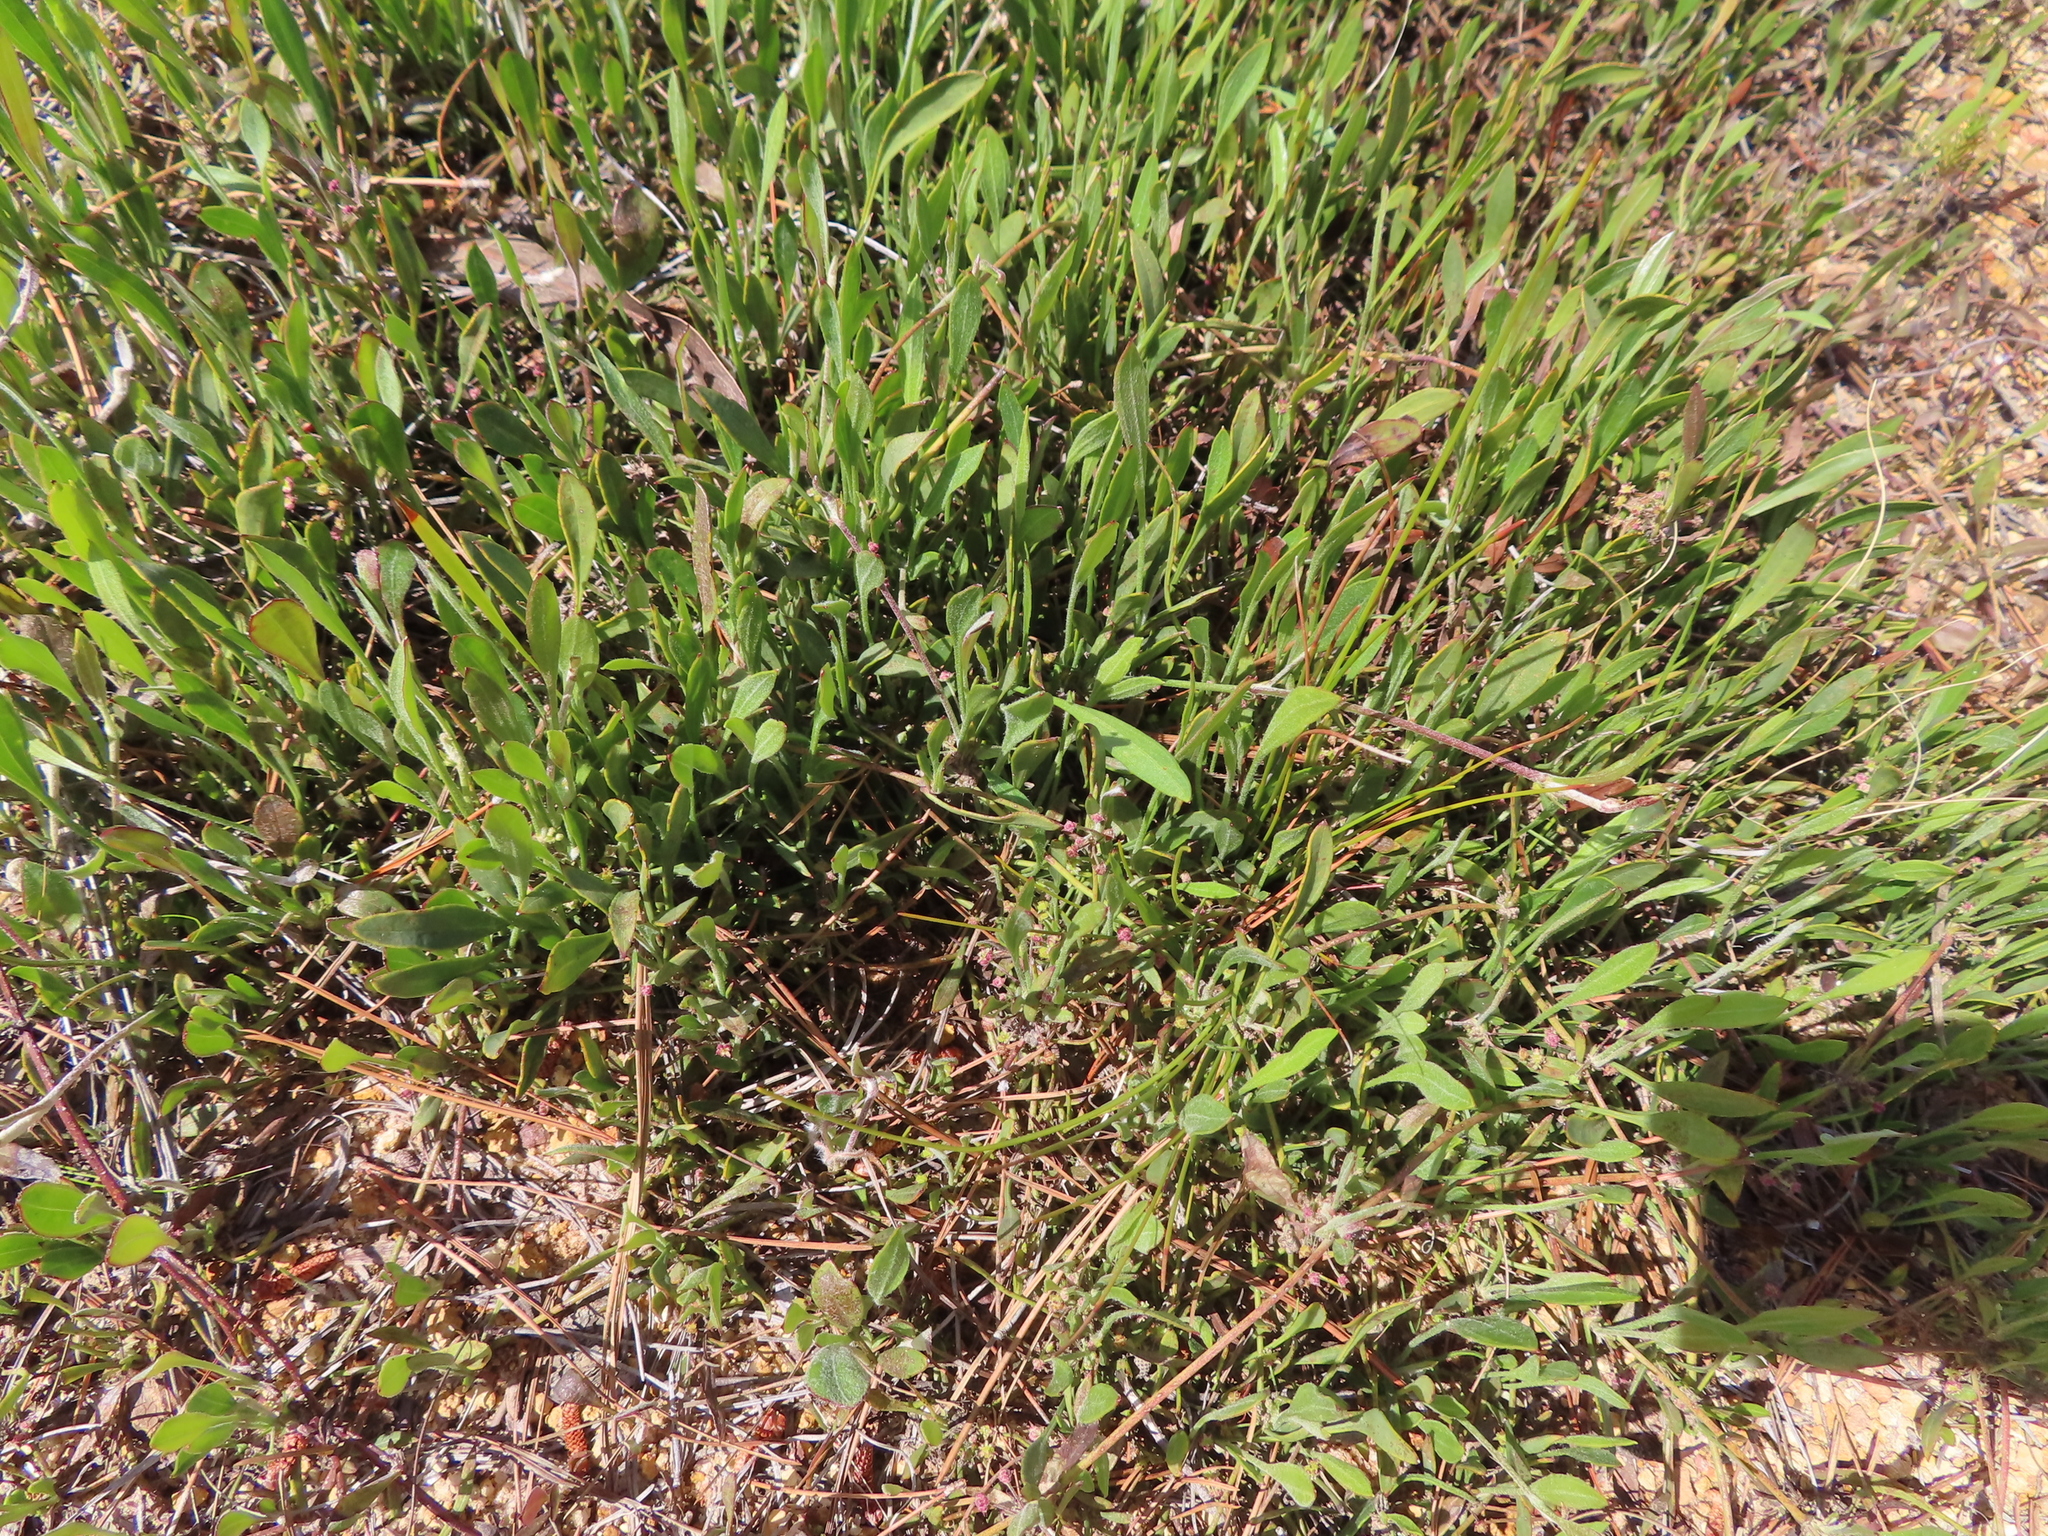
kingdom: Plantae
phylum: Tracheophyta
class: Magnoliopsida
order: Apiales
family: Apiaceae
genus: Centella
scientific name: Centella glabrata
